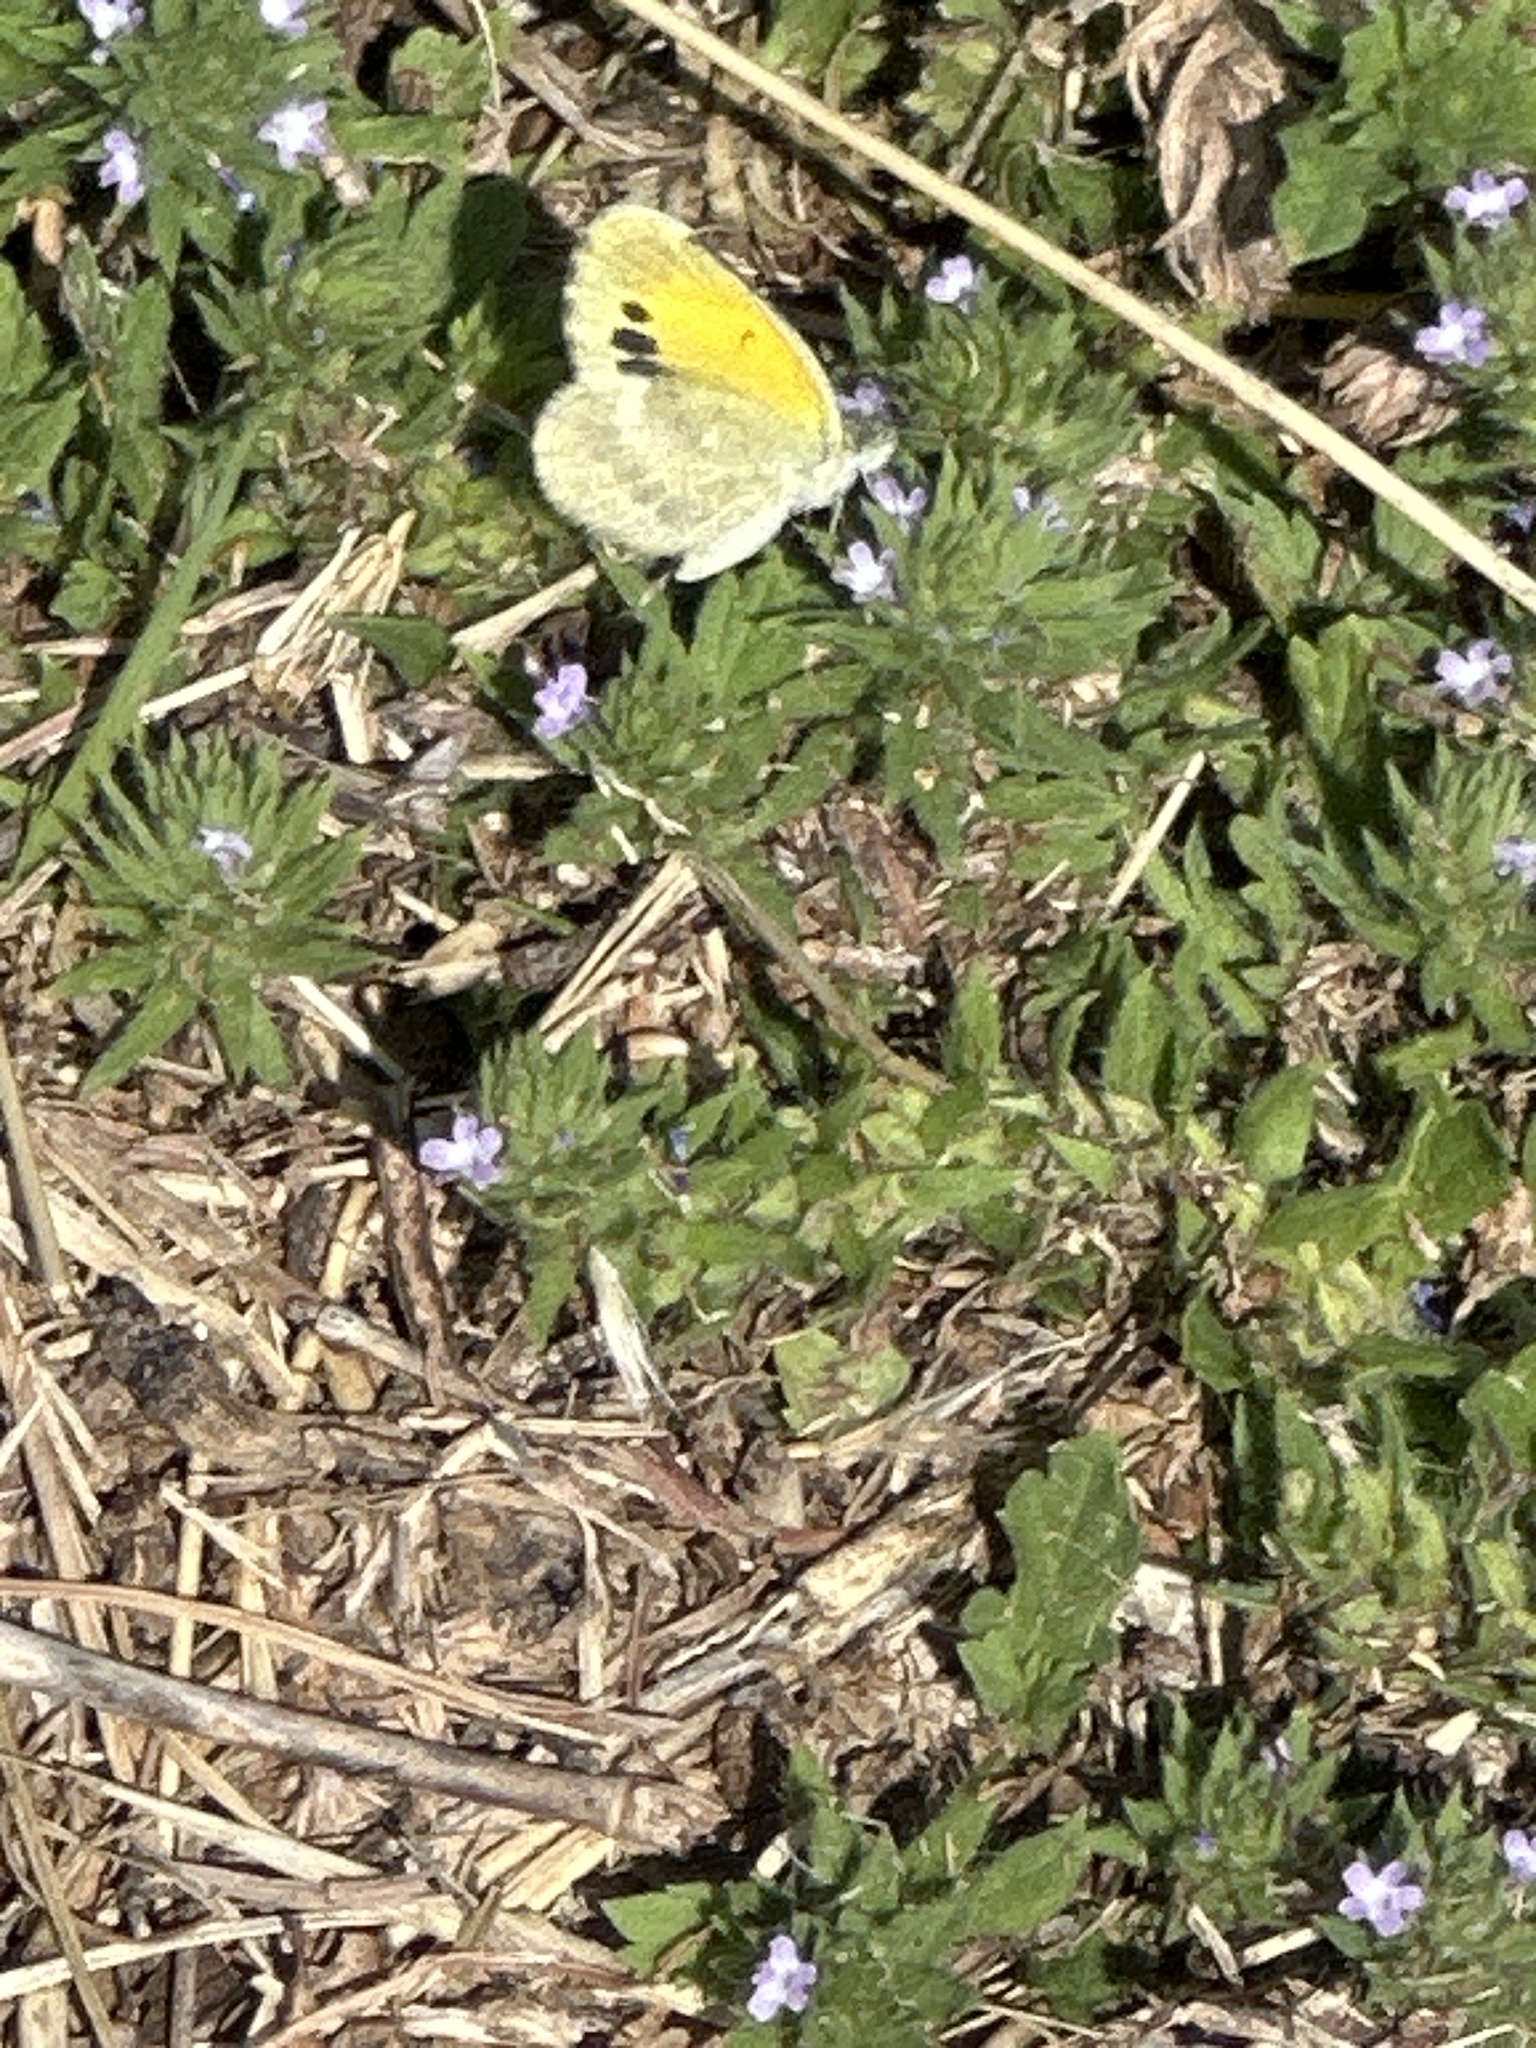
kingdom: Animalia
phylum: Arthropoda
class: Insecta
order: Lepidoptera
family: Pieridae
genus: Nathalis
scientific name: Nathalis iole
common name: Dainty sulphur
